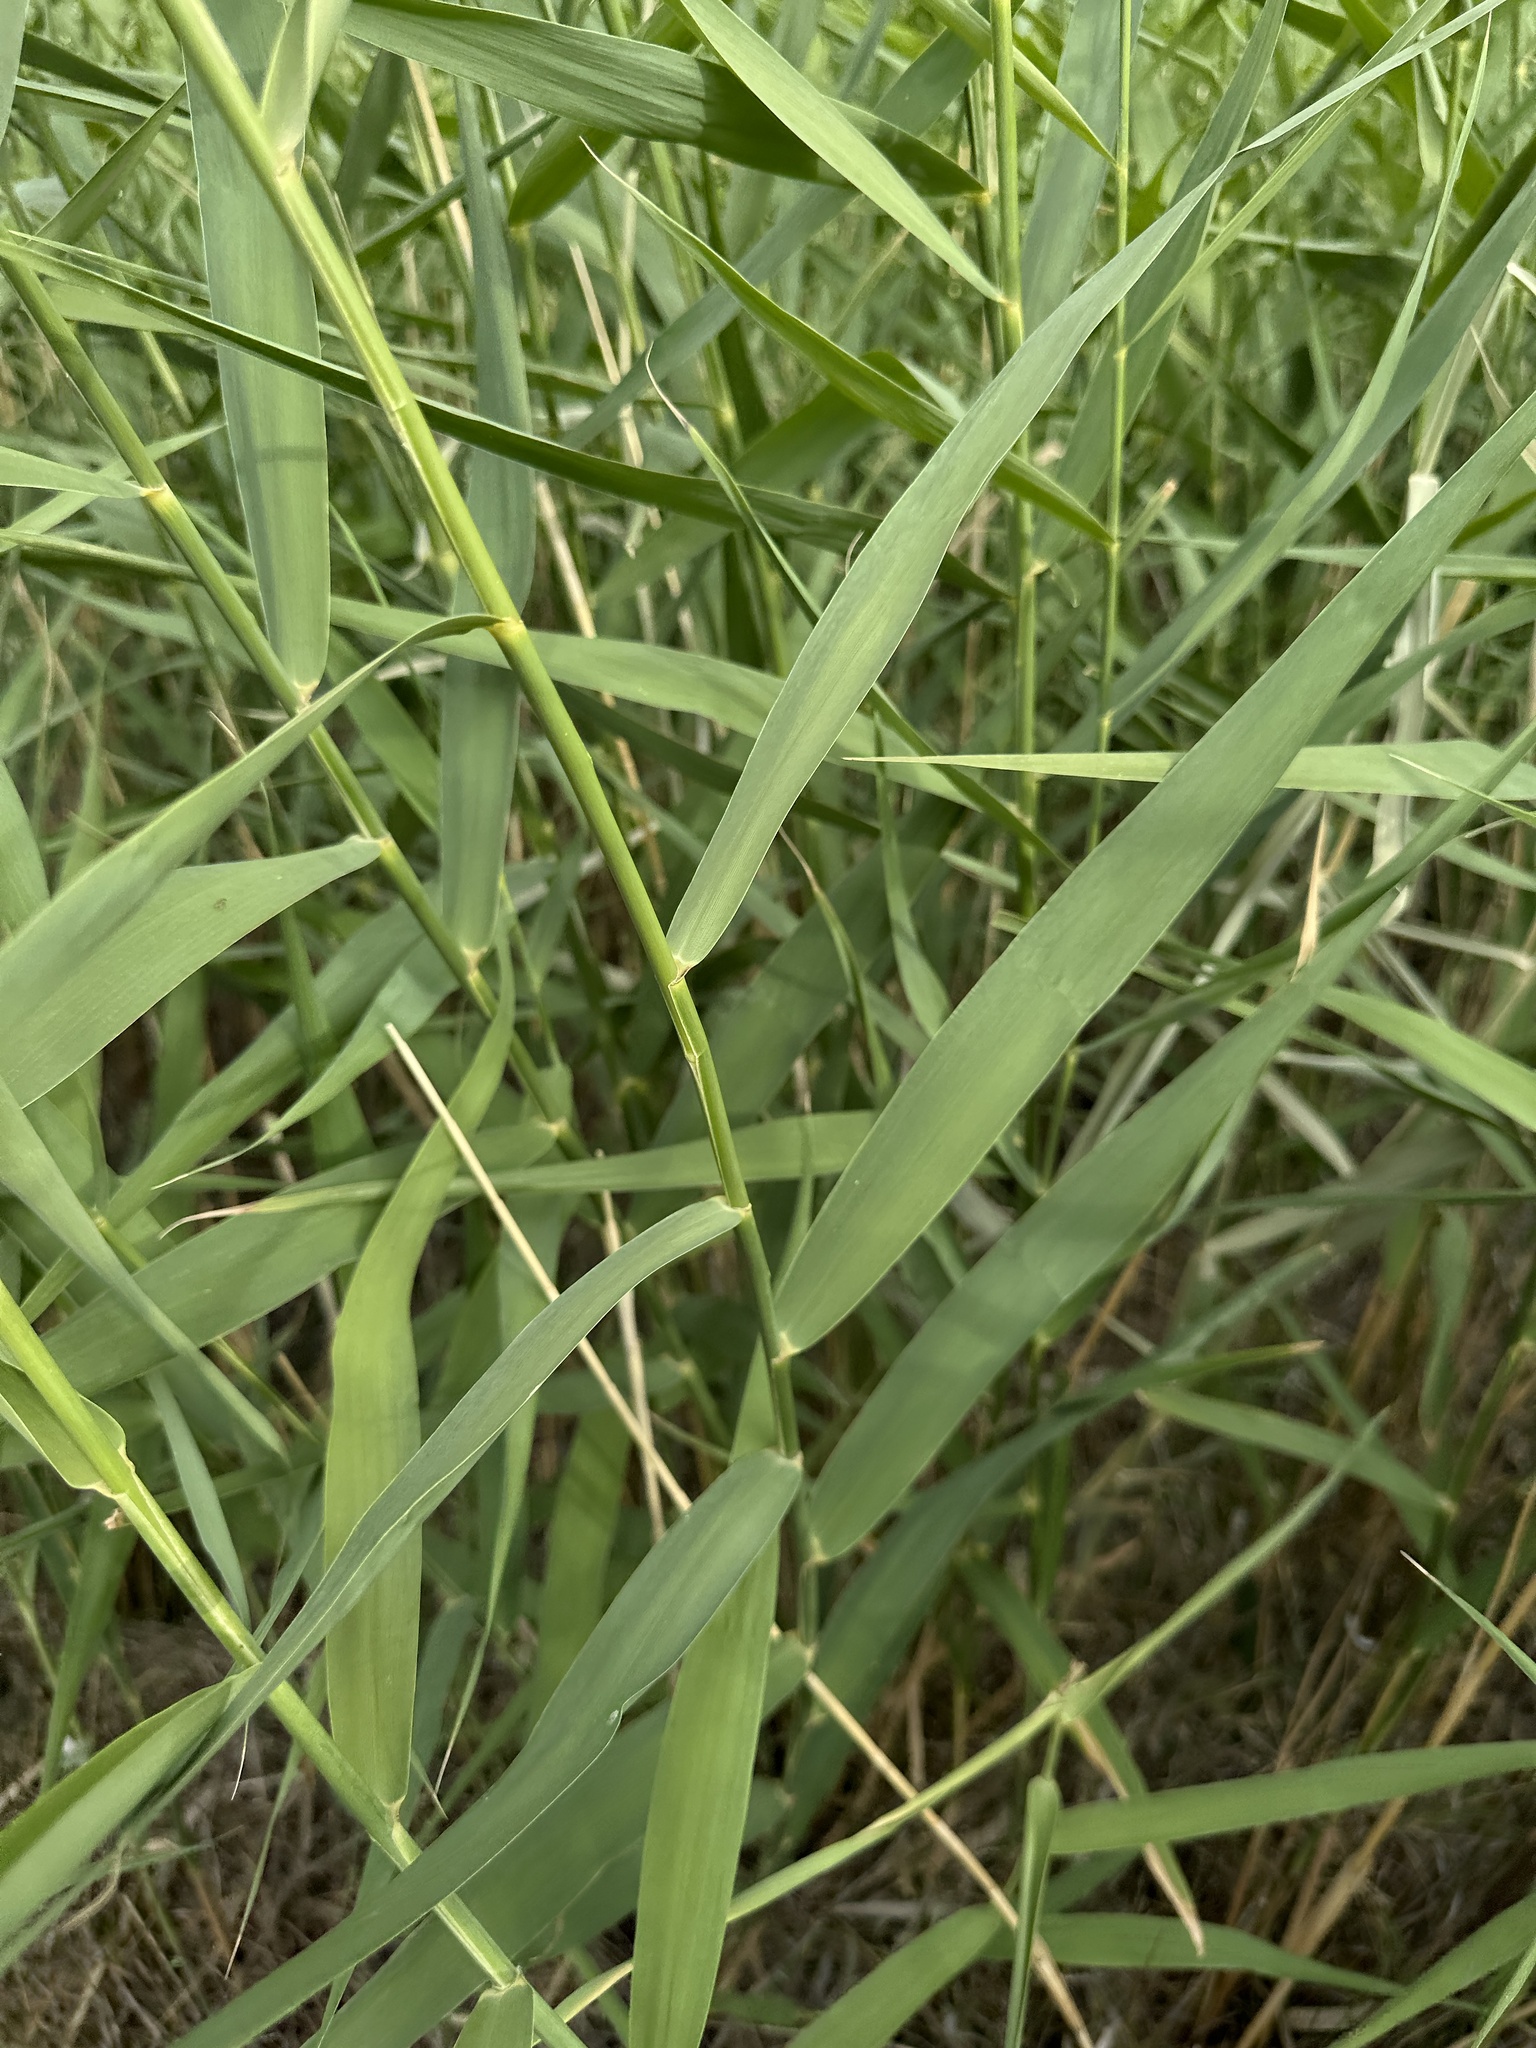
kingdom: Plantae
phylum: Tracheophyta
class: Liliopsida
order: Poales
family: Poaceae
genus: Phragmites
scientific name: Phragmites australis
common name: Common reed
